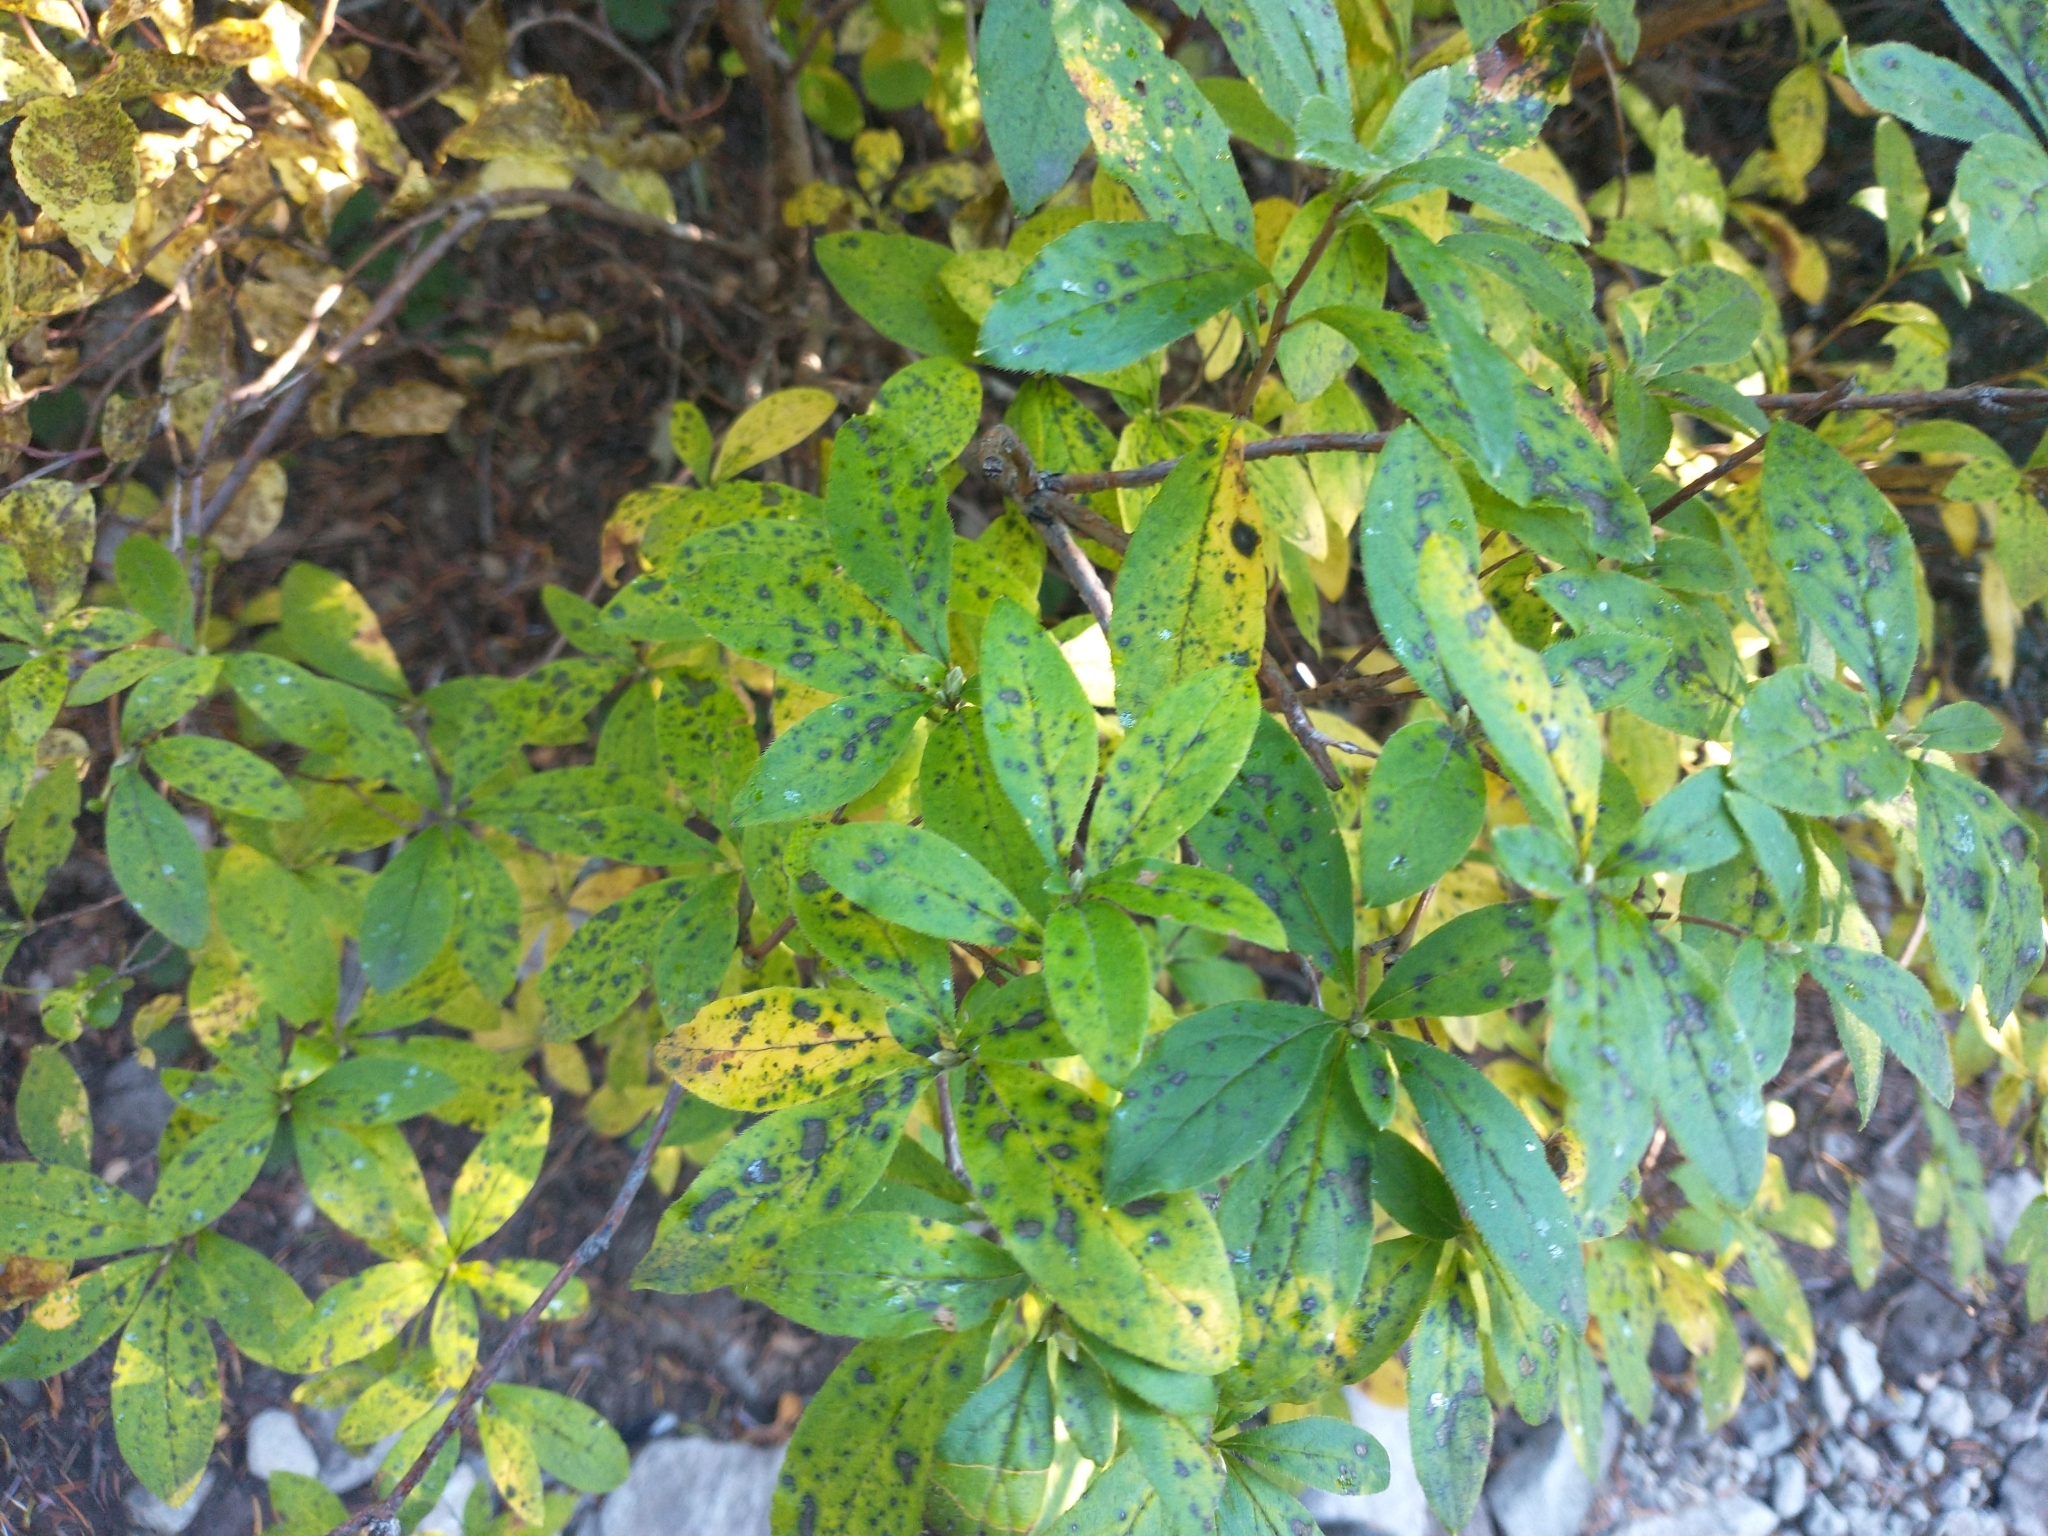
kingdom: Plantae
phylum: Tracheophyta
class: Magnoliopsida
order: Ericales
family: Ericaceae
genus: Rhododendron
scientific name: Rhododendron menziesii
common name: Pacific menziesia
